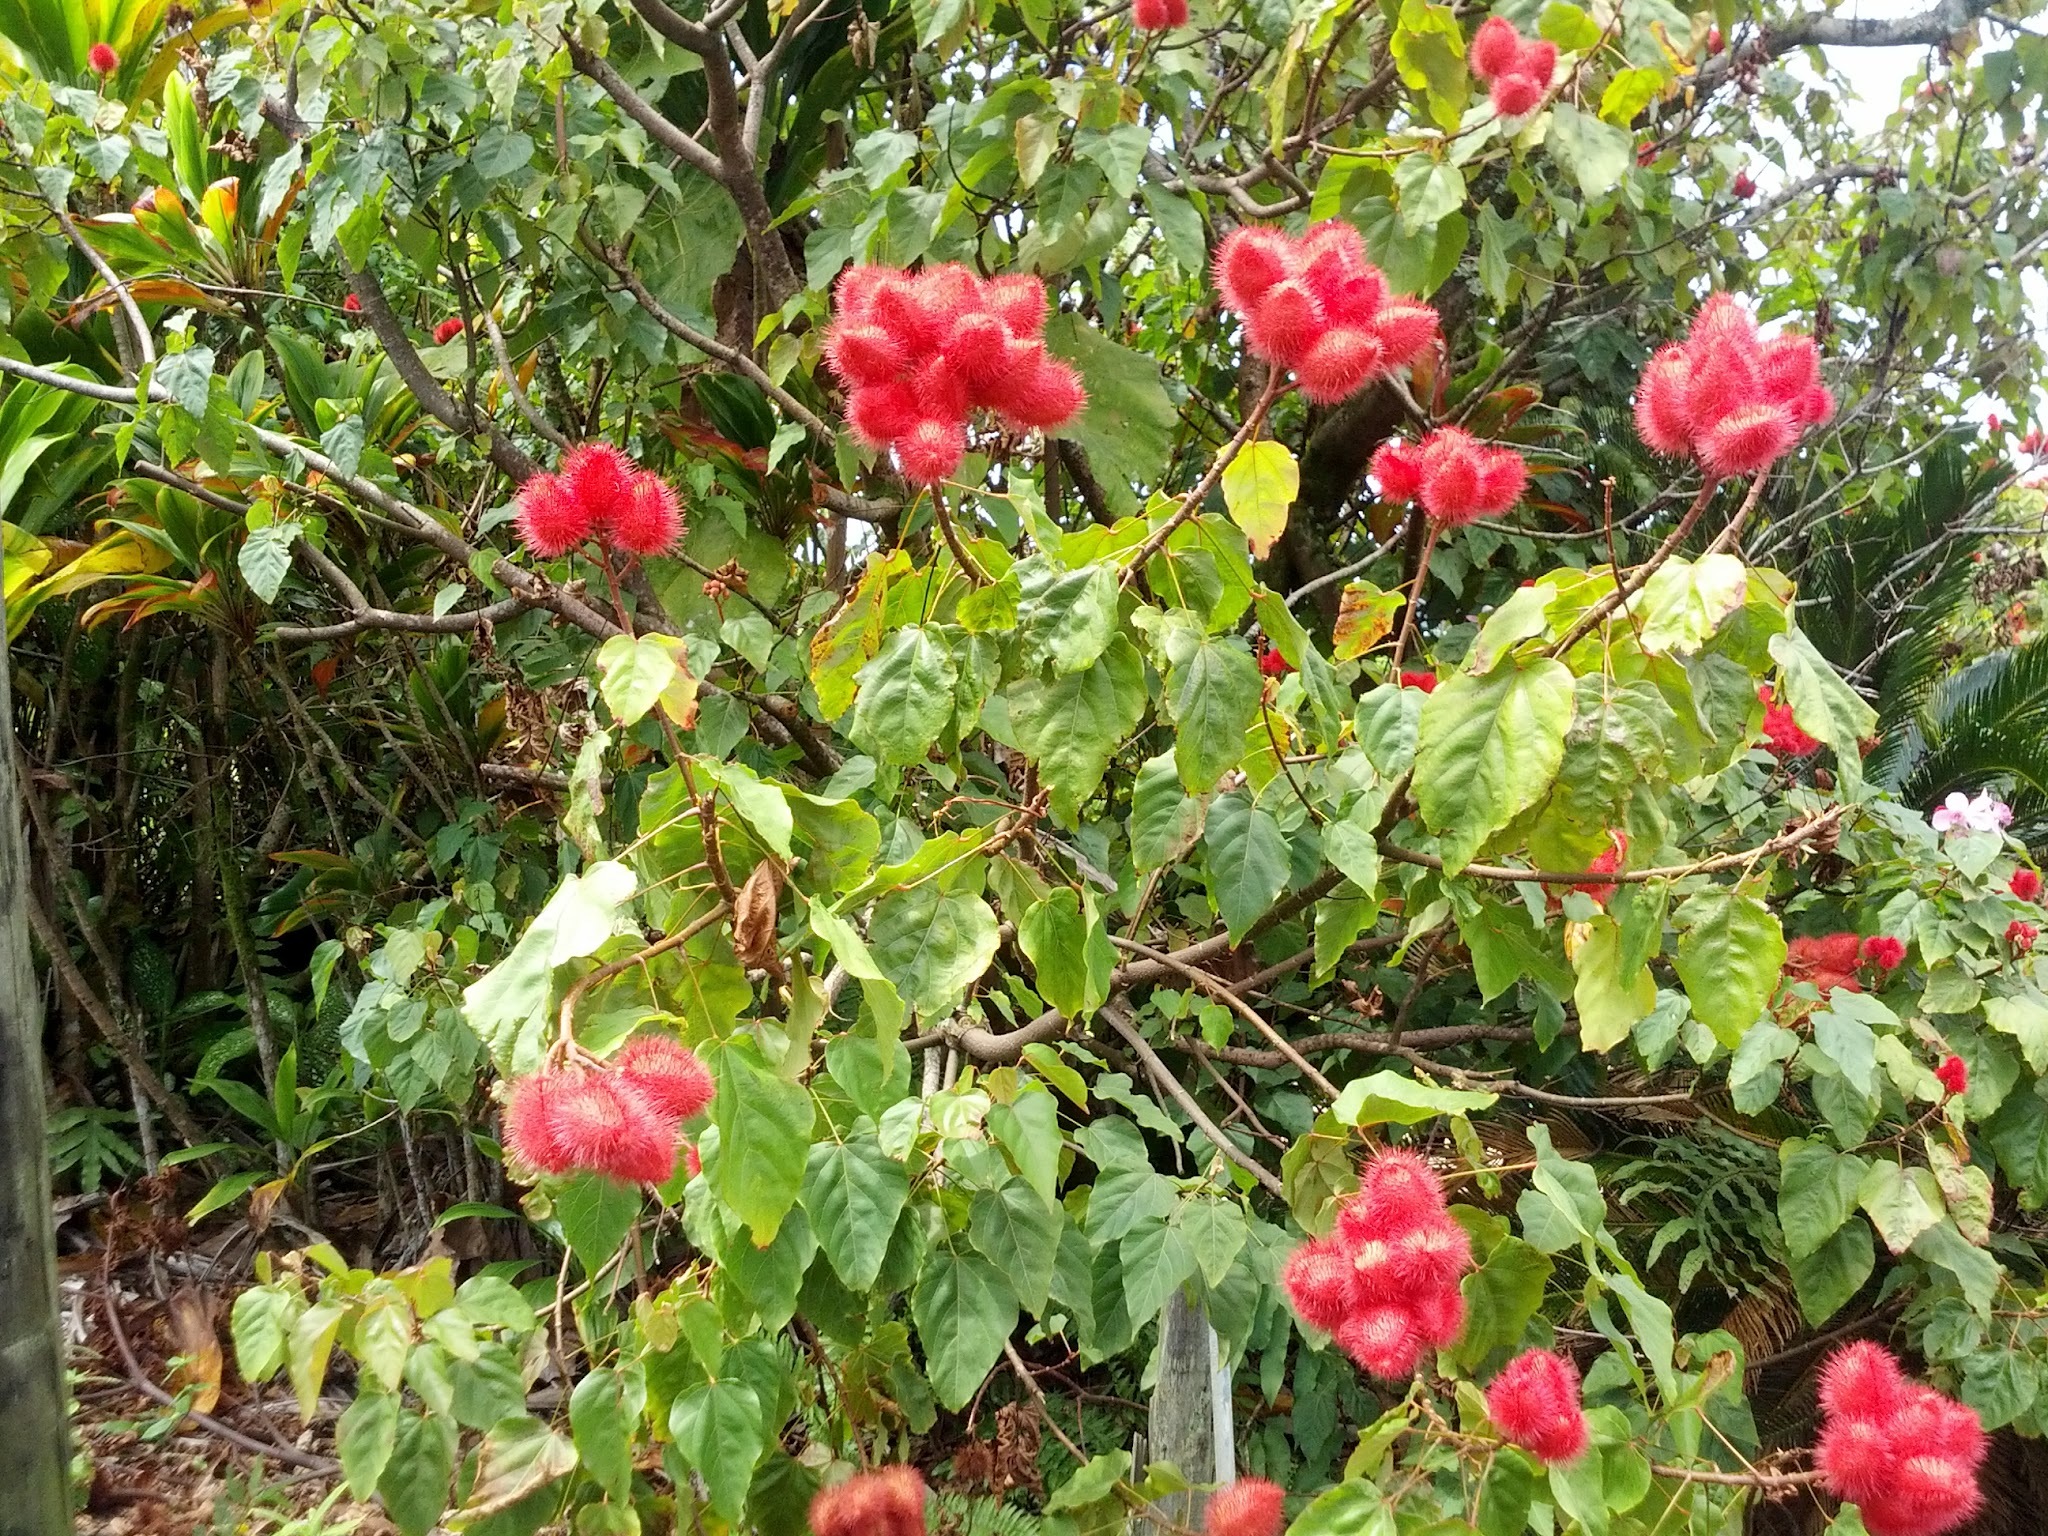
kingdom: Plantae
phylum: Tracheophyta
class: Magnoliopsida
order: Malvales
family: Bixaceae
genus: Bixa
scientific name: Bixa orellana
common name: Lipsticktree
